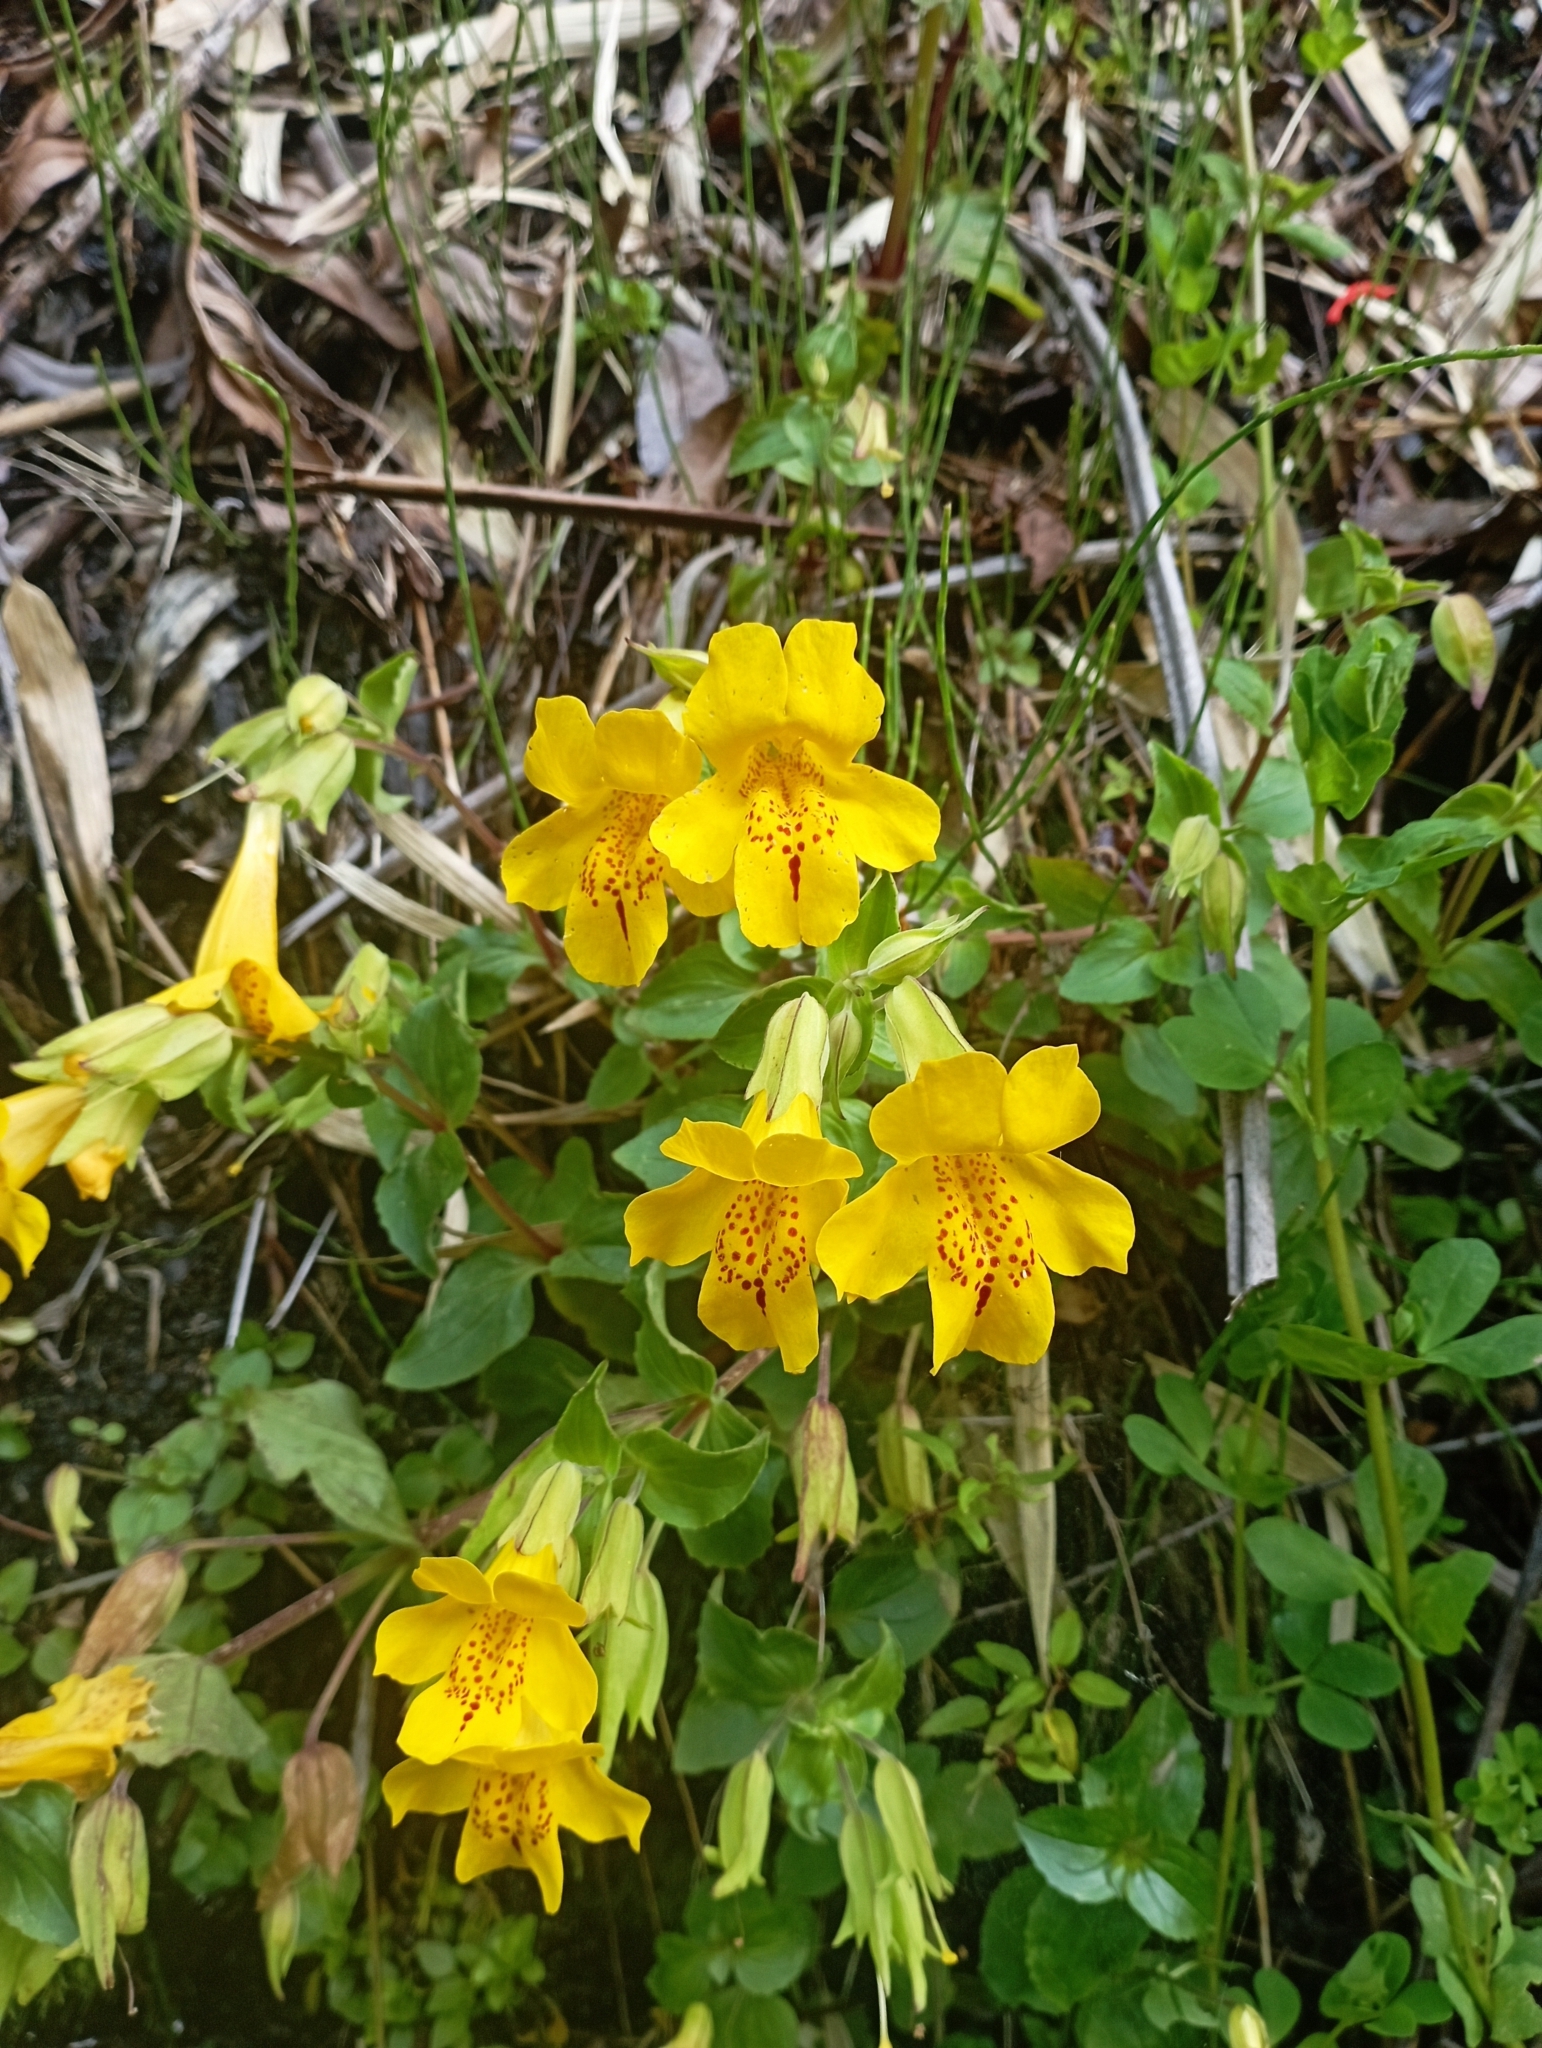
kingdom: Plantae
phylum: Tracheophyta
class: Magnoliopsida
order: Lamiales
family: Phrymaceae
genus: Erythranthe
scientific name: Erythranthe lutea
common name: Yellow monkey-flower
